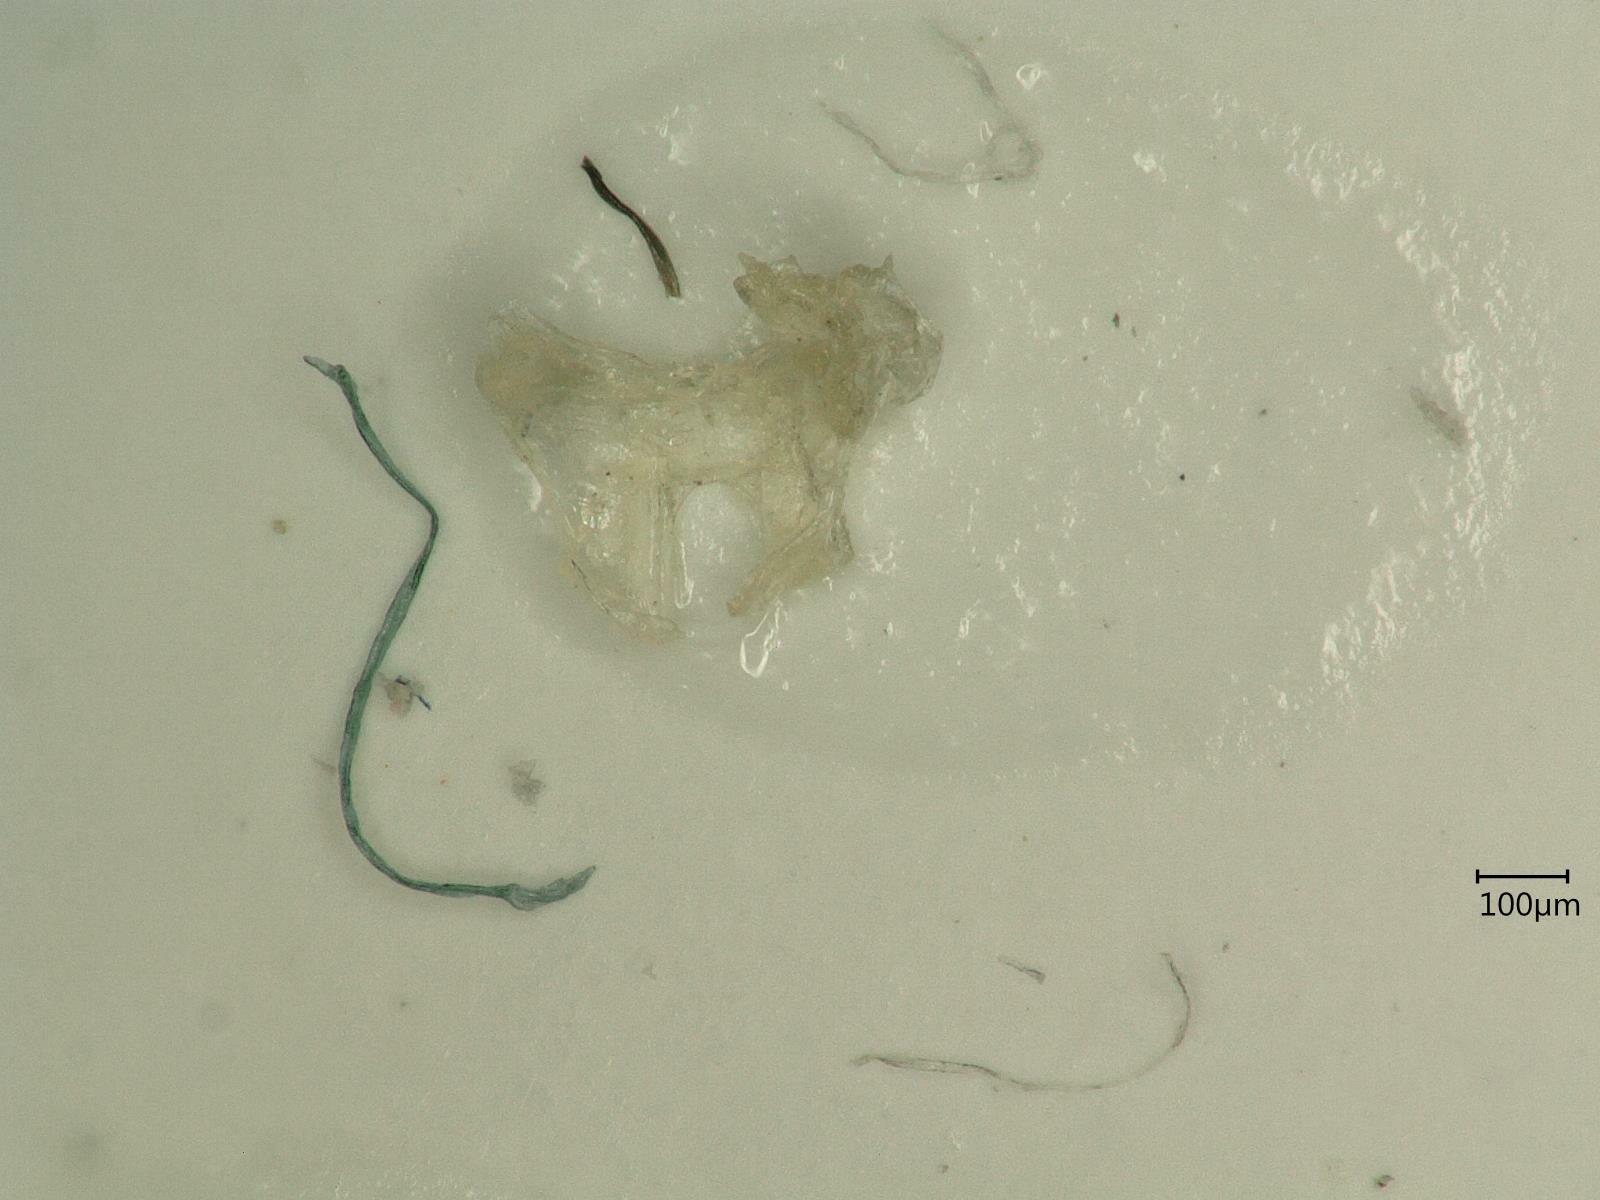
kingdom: Animalia
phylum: Arthropoda
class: Insecta
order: Hemiptera
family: Cicadellidae
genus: Kybos
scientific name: Kybos calyculus
